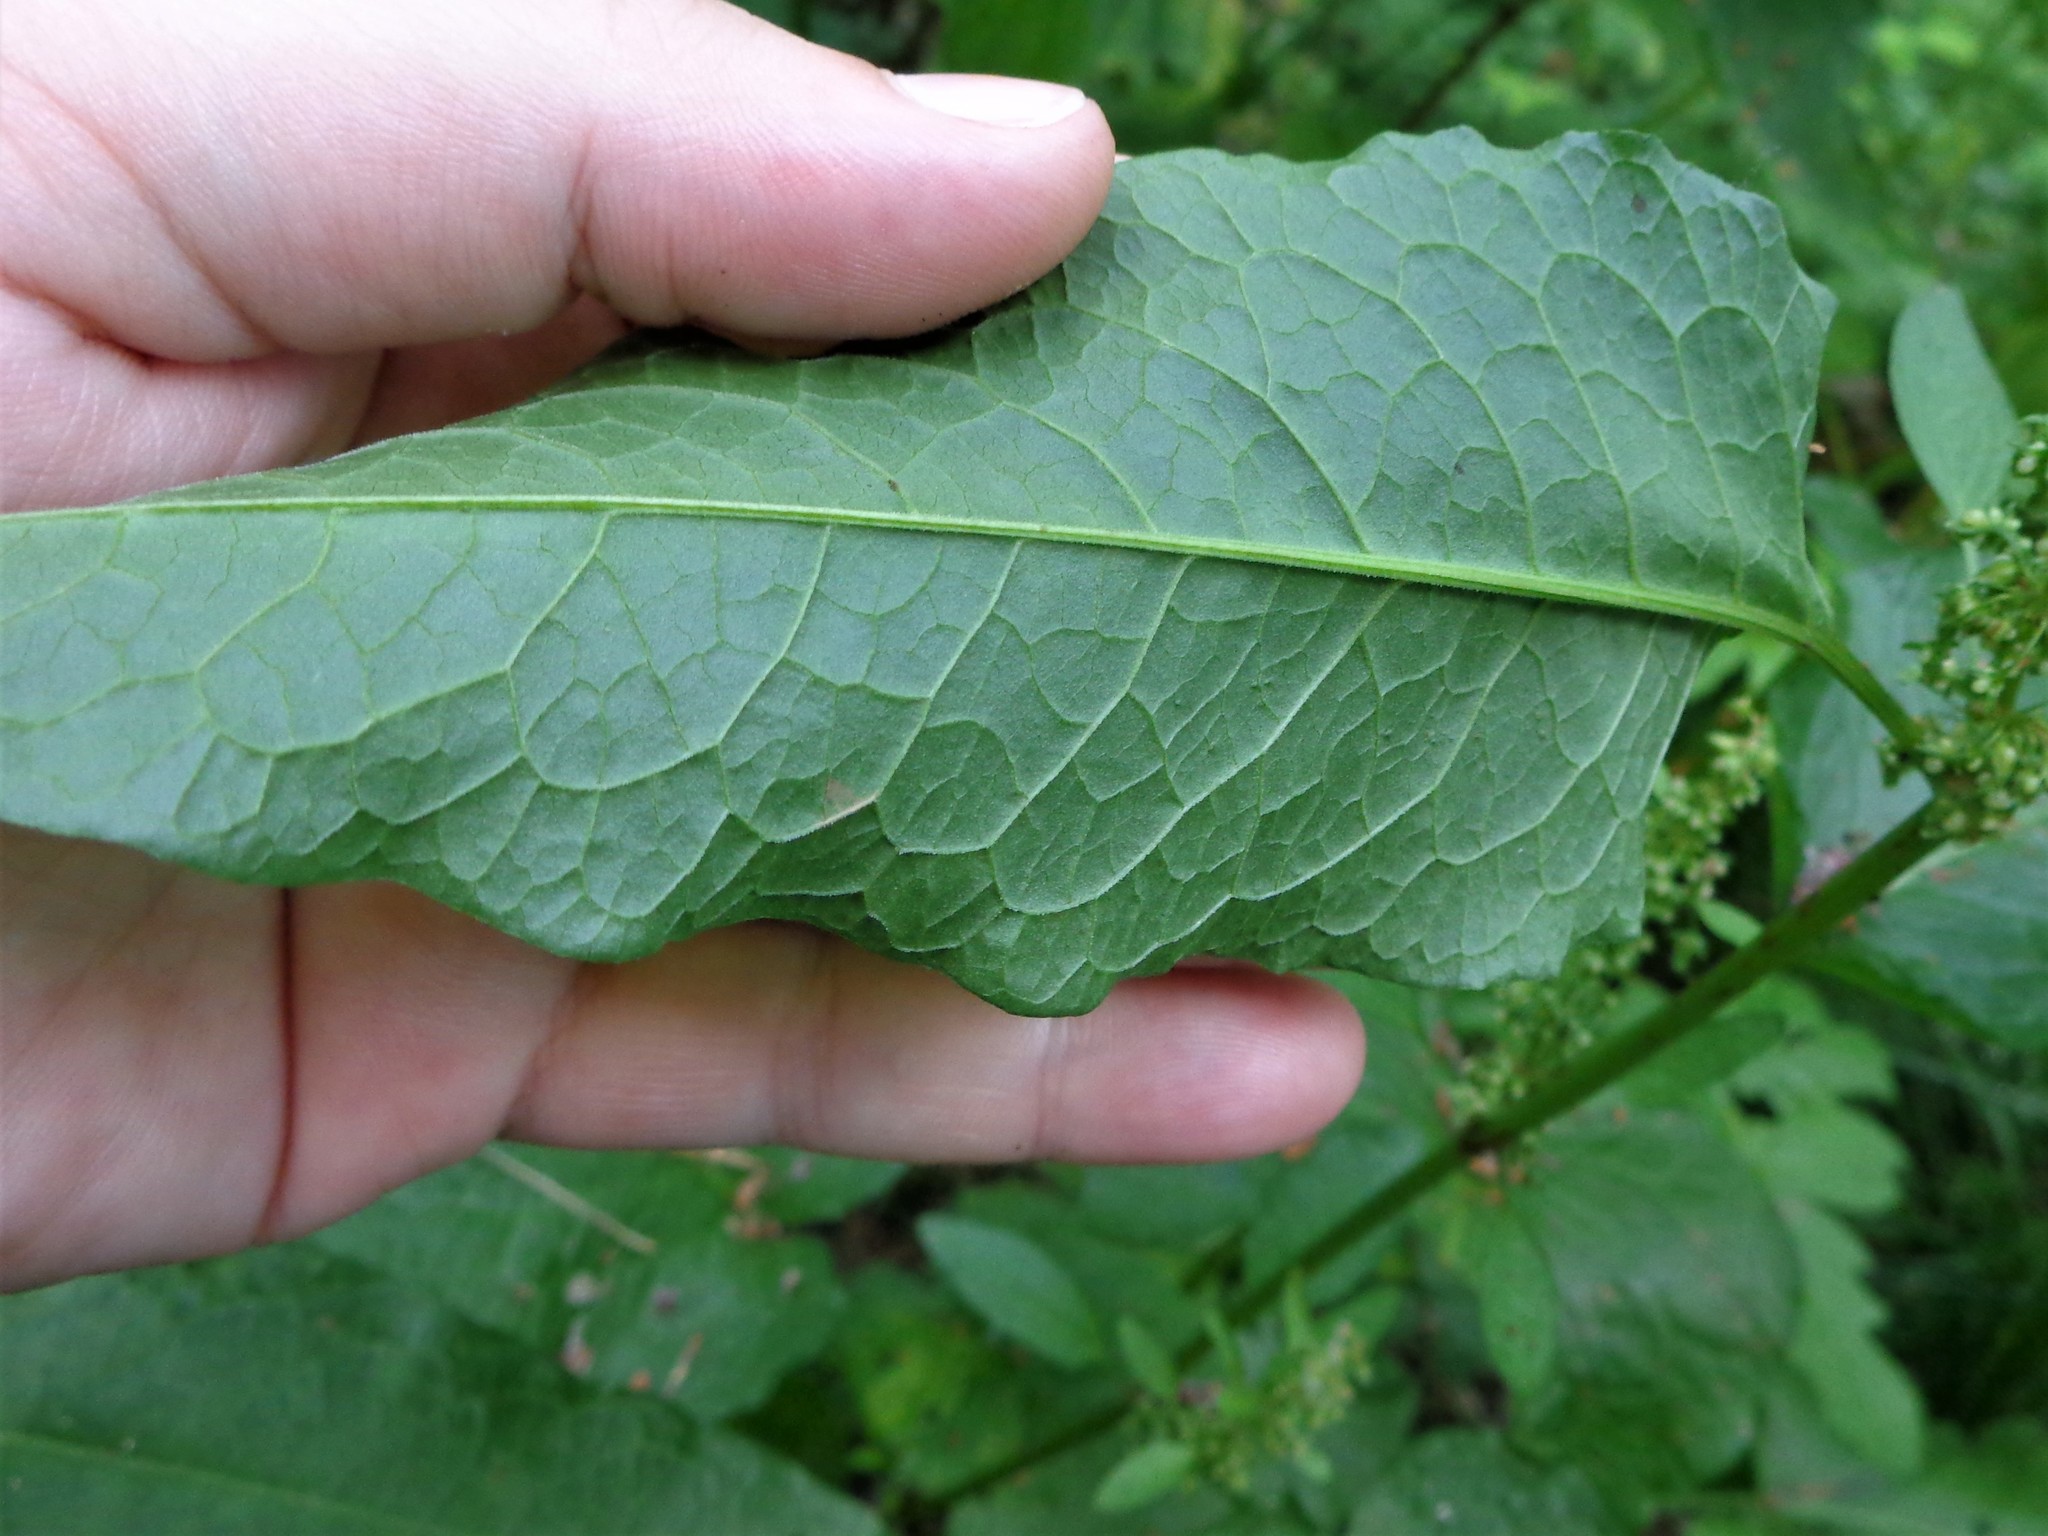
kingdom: Plantae
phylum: Tracheophyta
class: Magnoliopsida
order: Caryophyllales
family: Polygonaceae
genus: Rumex
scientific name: Rumex obtusifolius
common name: Bitter dock
